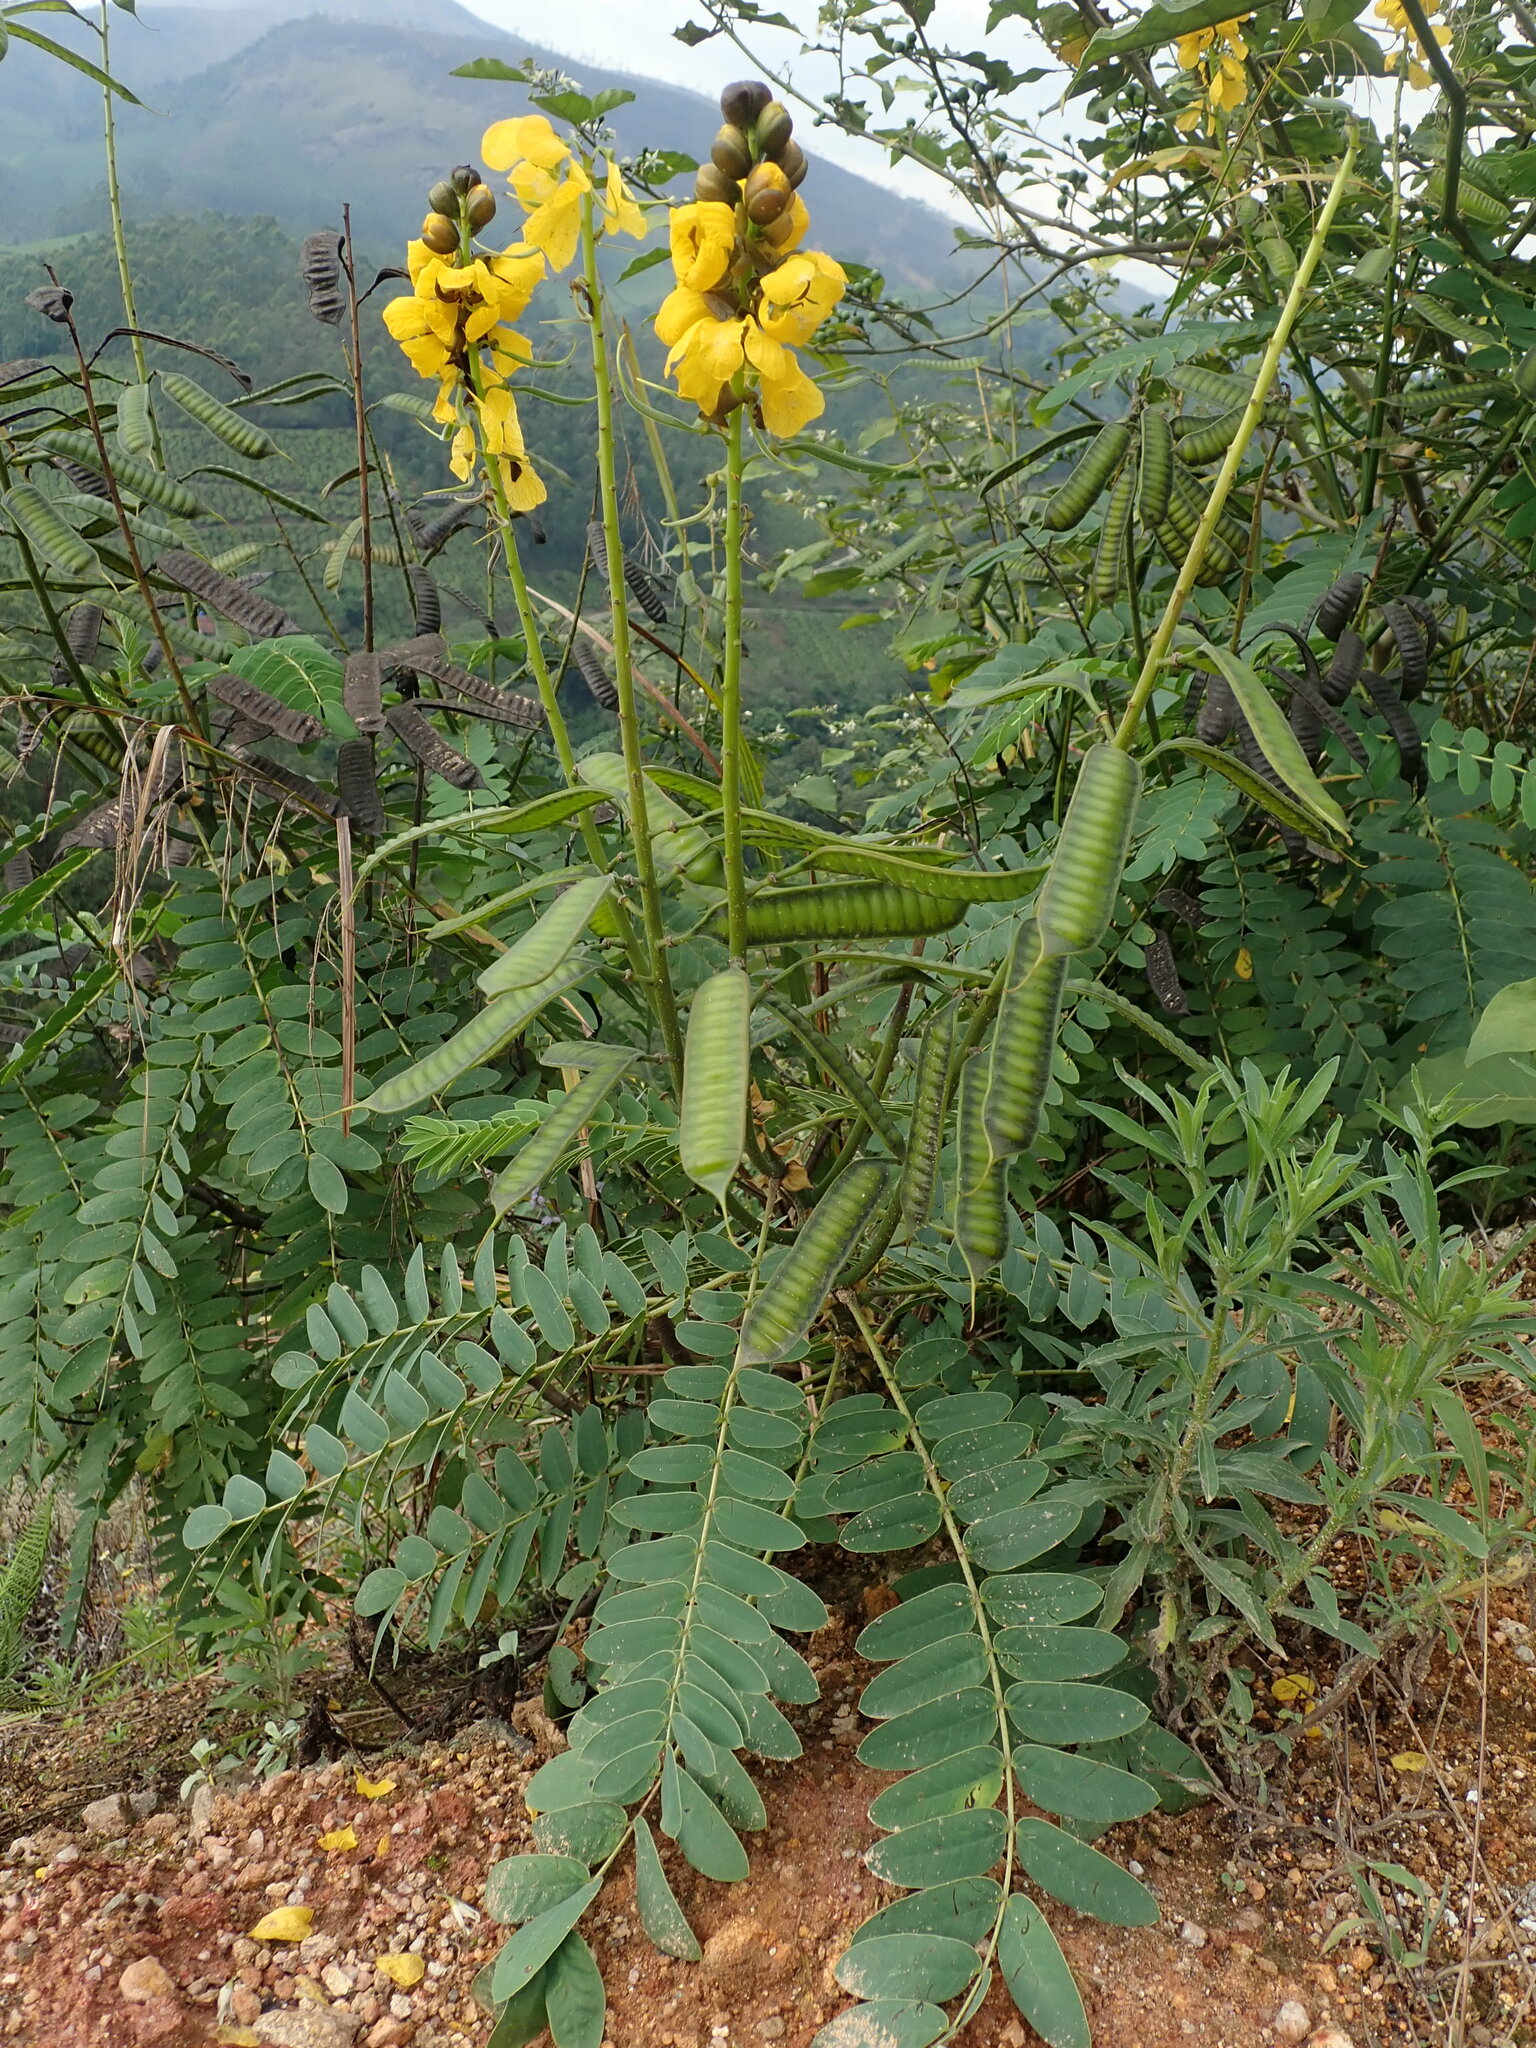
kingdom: Plantae
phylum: Tracheophyta
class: Magnoliopsida
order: Fabales
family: Fabaceae
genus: Senna
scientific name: Senna didymobotrya
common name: African senna
